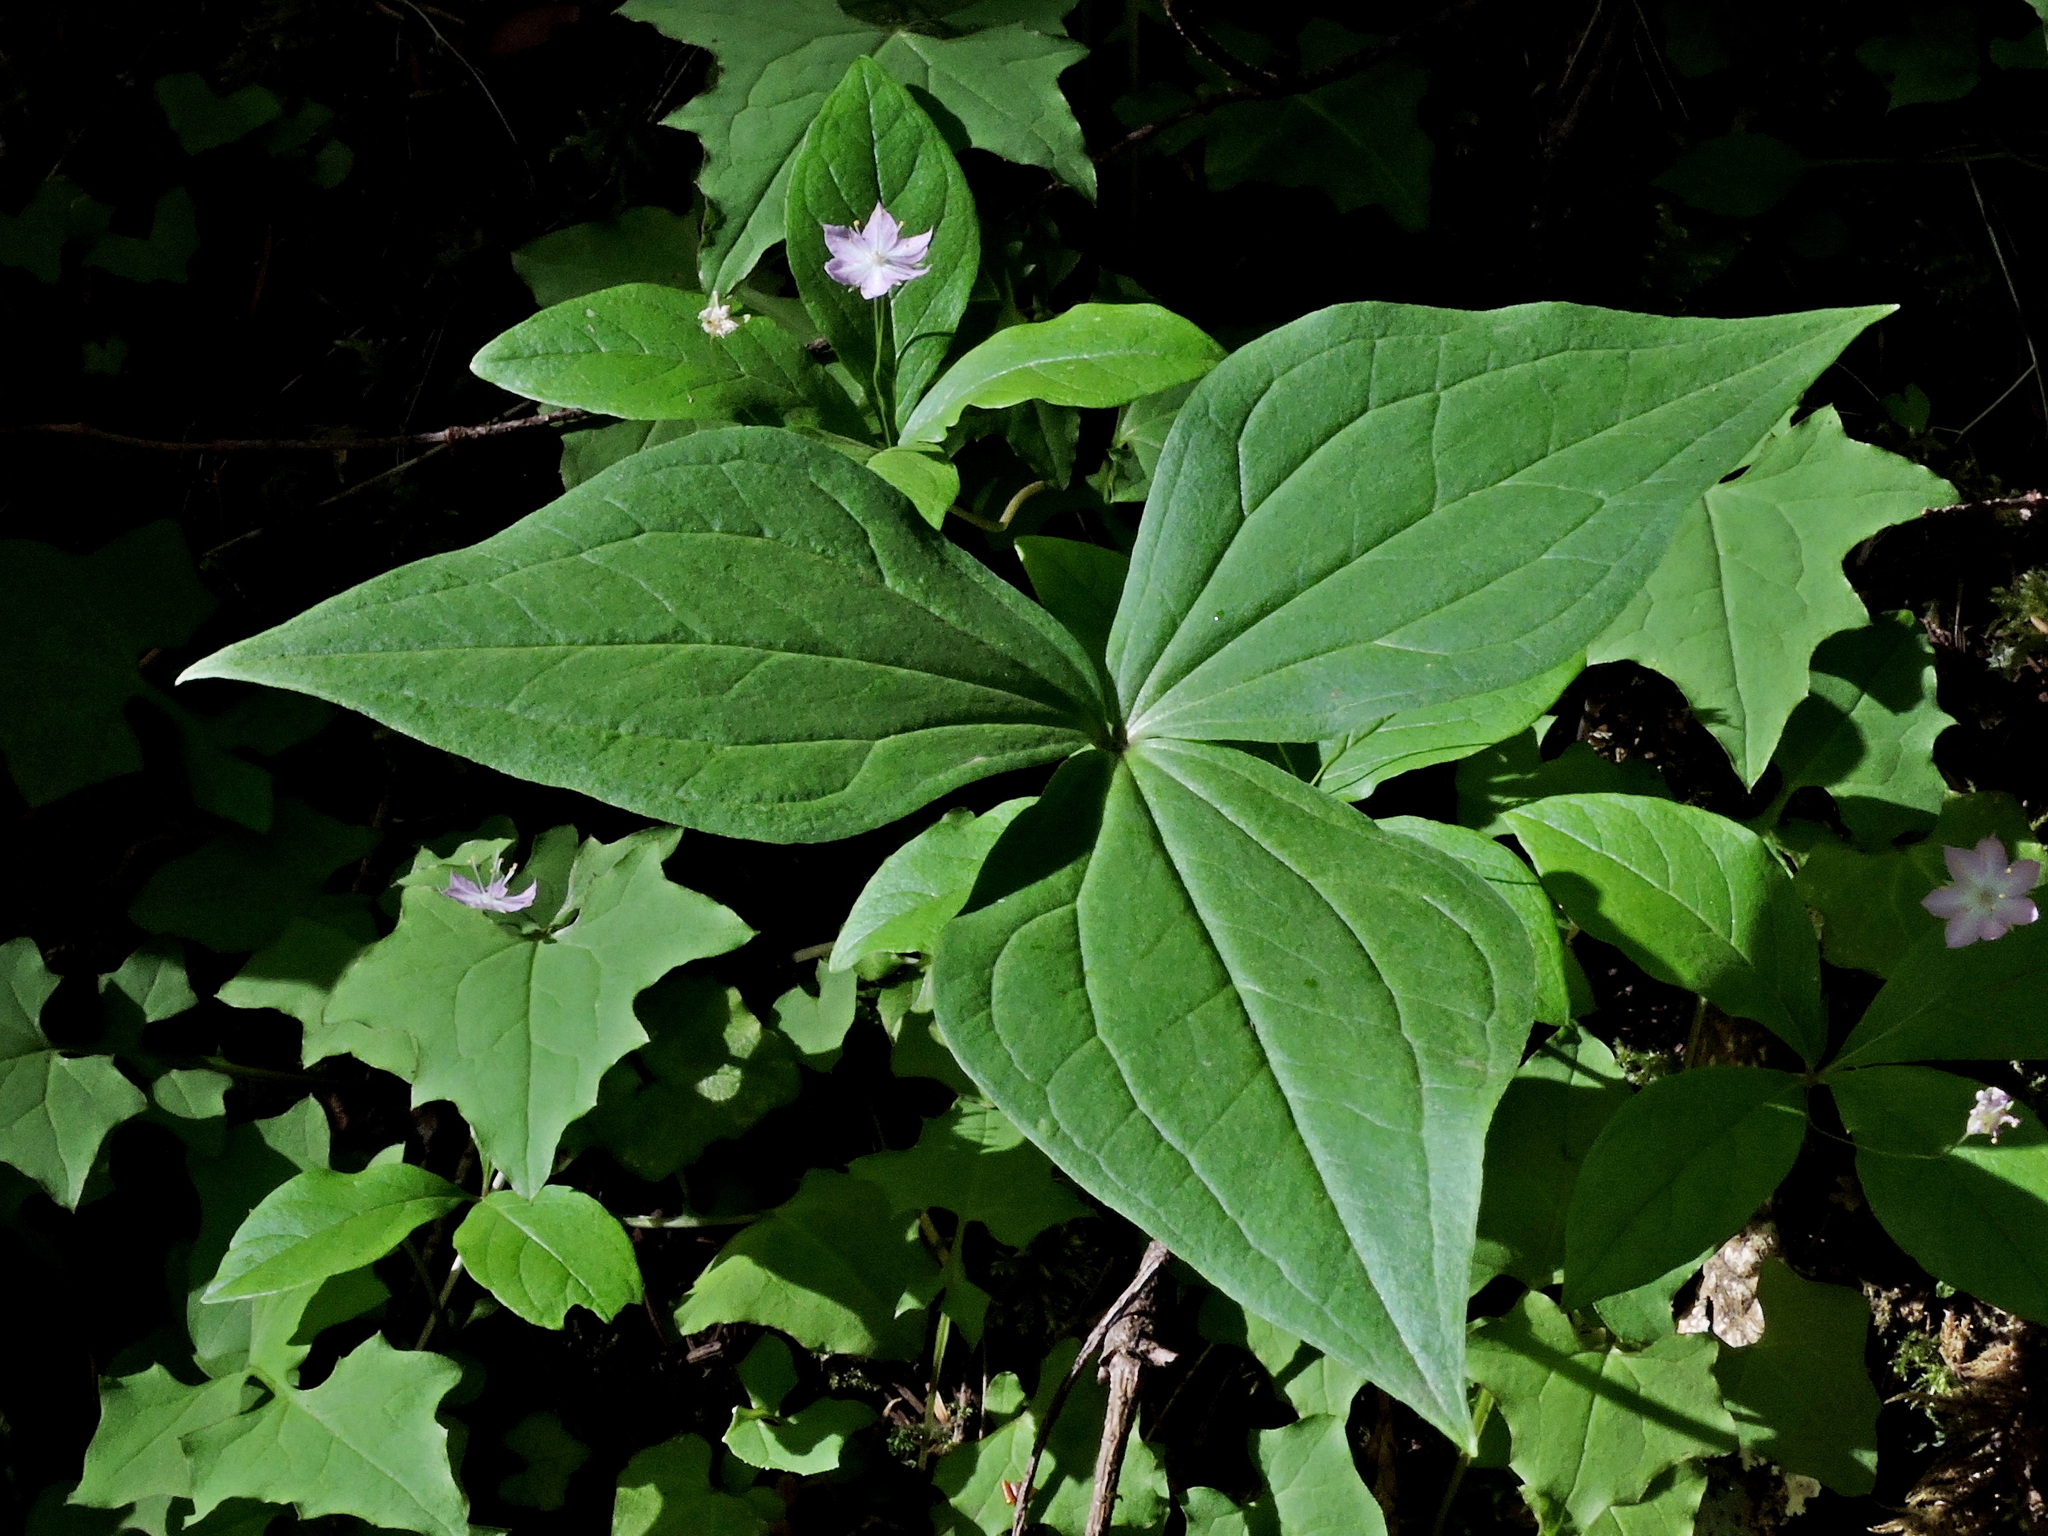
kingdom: Plantae
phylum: Tracheophyta
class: Liliopsida
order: Liliales
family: Melanthiaceae
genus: Trillium
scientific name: Trillium ovatum
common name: Pacific trillium
